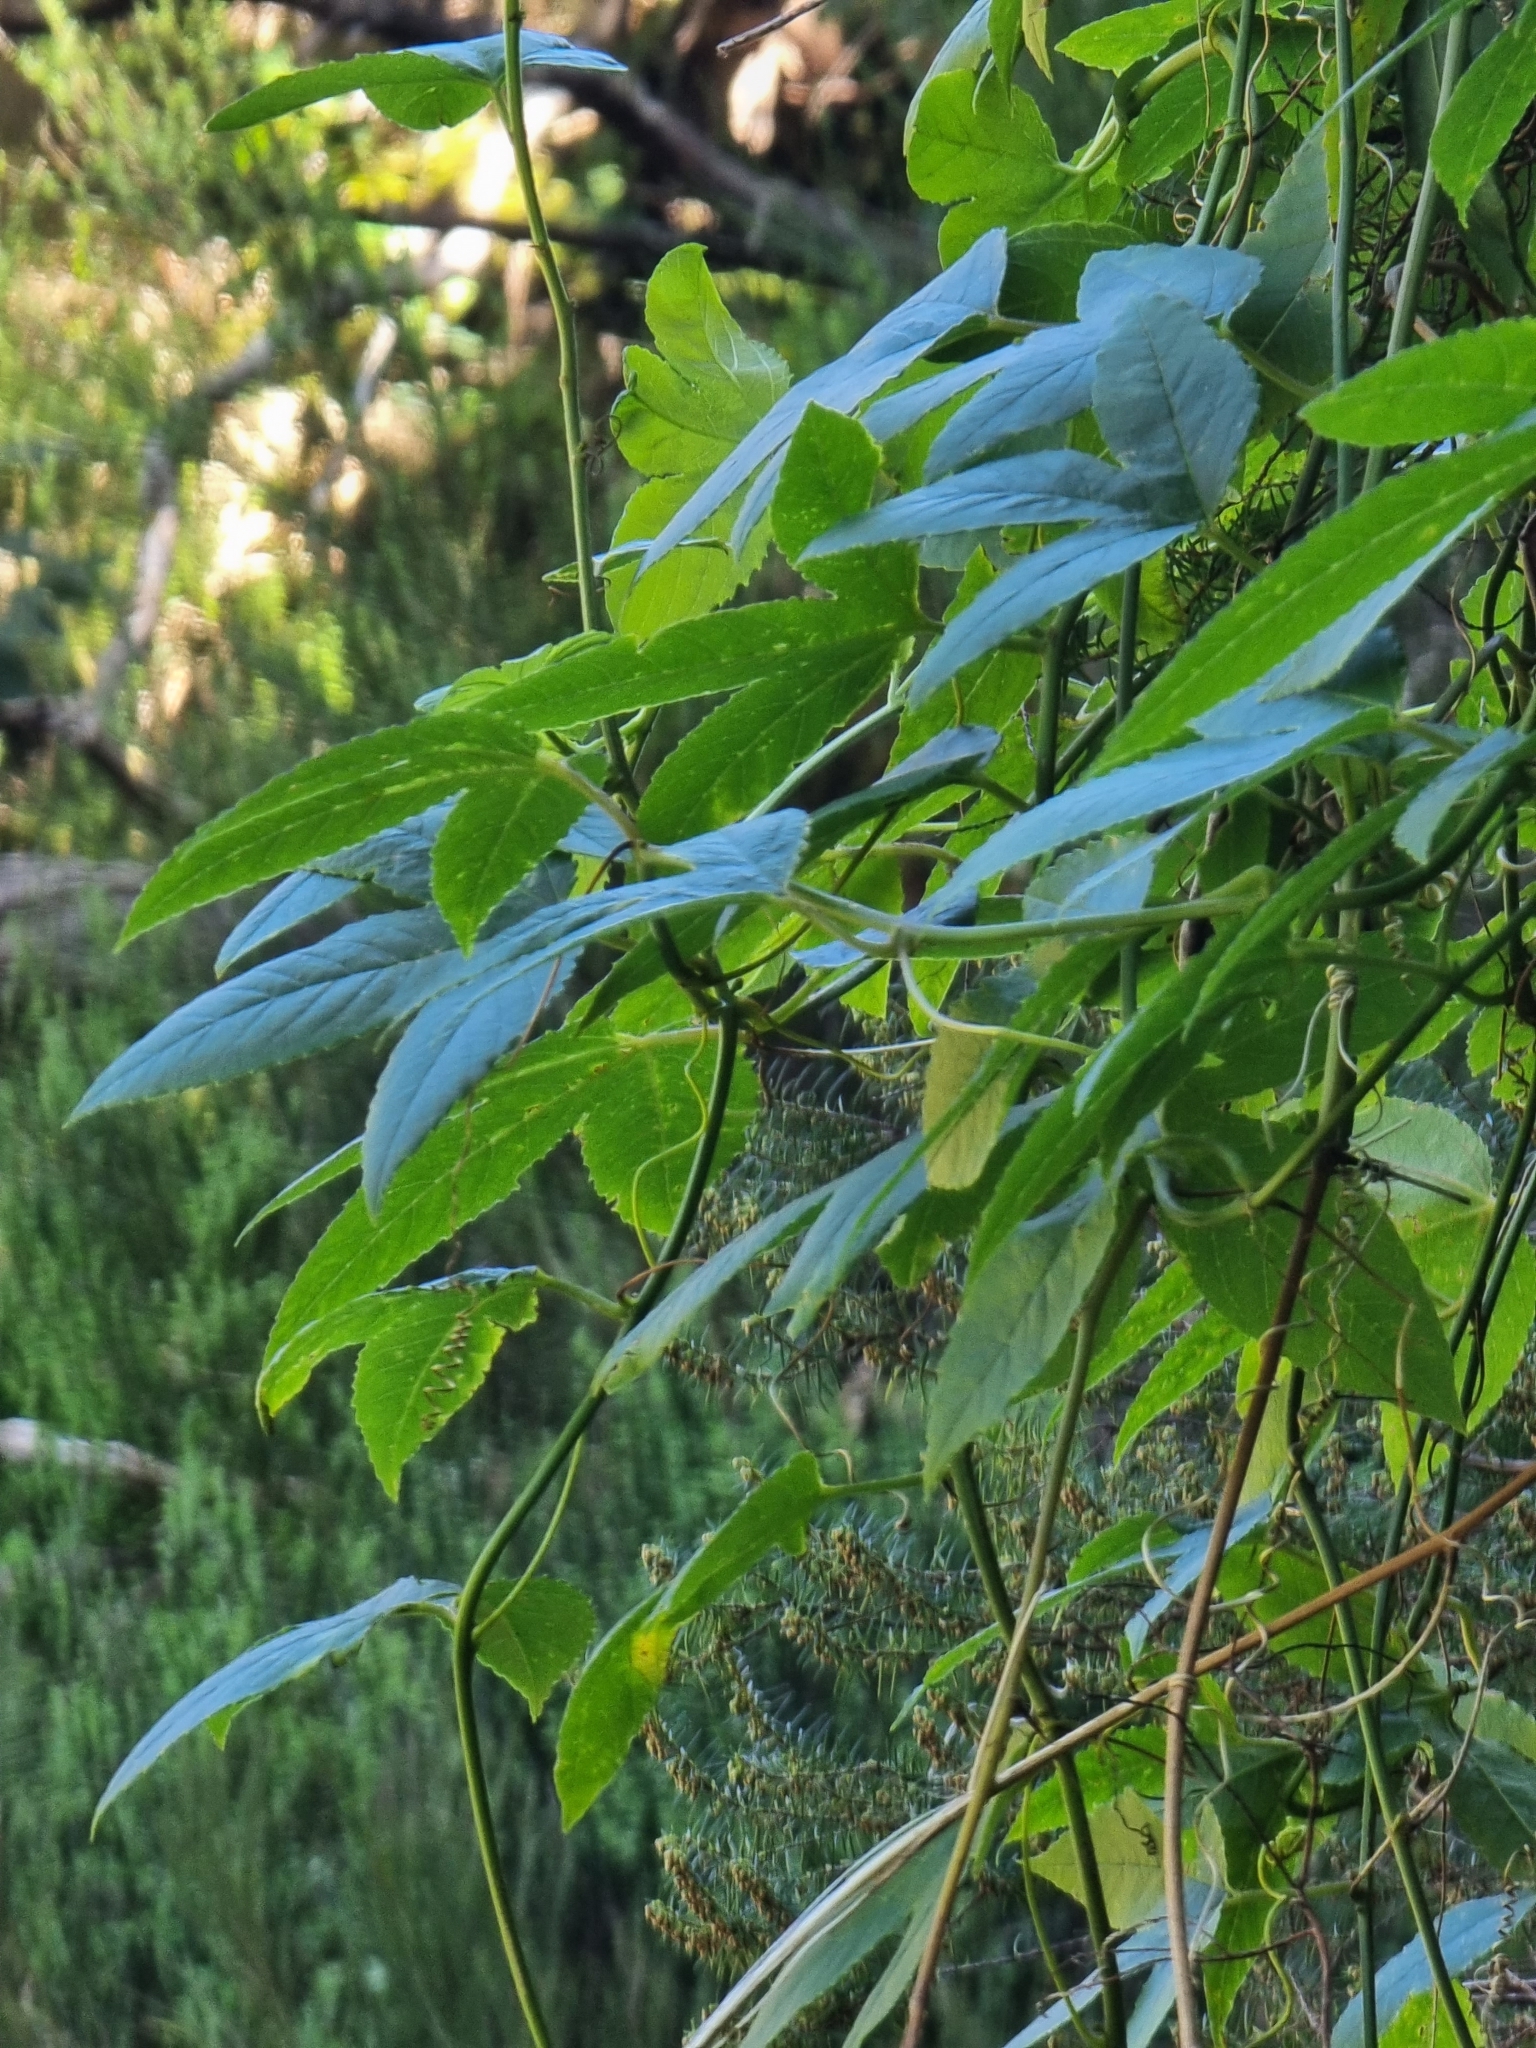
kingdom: Plantae
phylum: Tracheophyta
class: Magnoliopsida
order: Malpighiales
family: Passifloraceae
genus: Passiflora
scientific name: Passiflora tarminiana
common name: Banana poka
